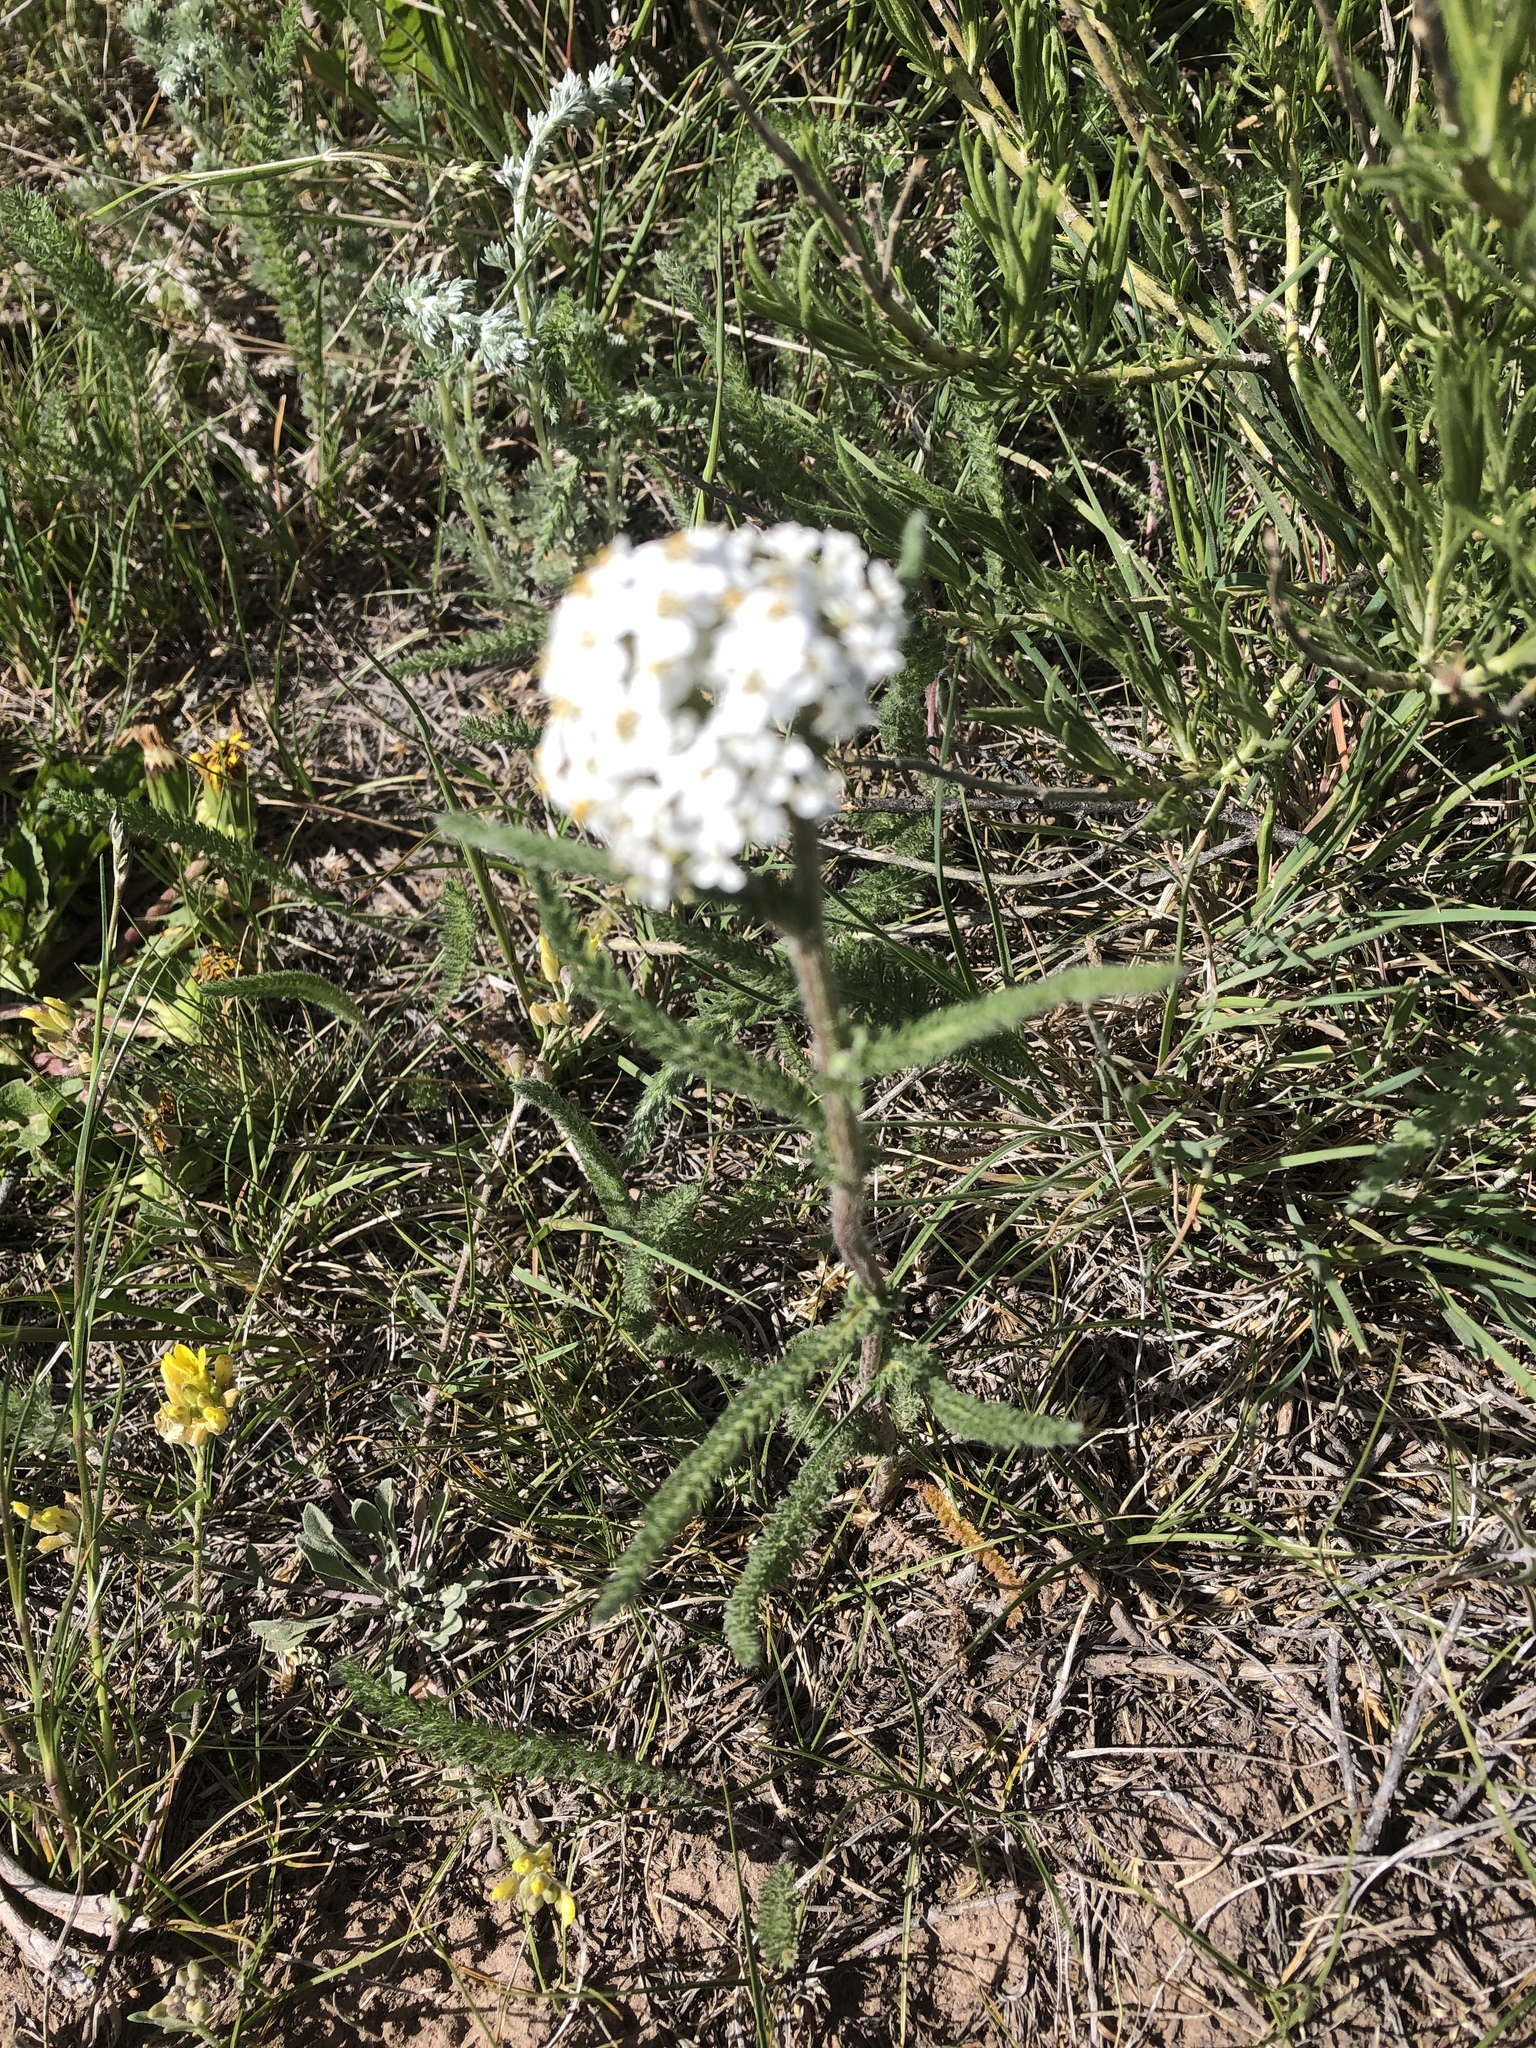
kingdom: Plantae
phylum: Tracheophyta
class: Magnoliopsida
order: Asterales
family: Asteraceae
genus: Achillea
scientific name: Achillea millefolium
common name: Yarrow
